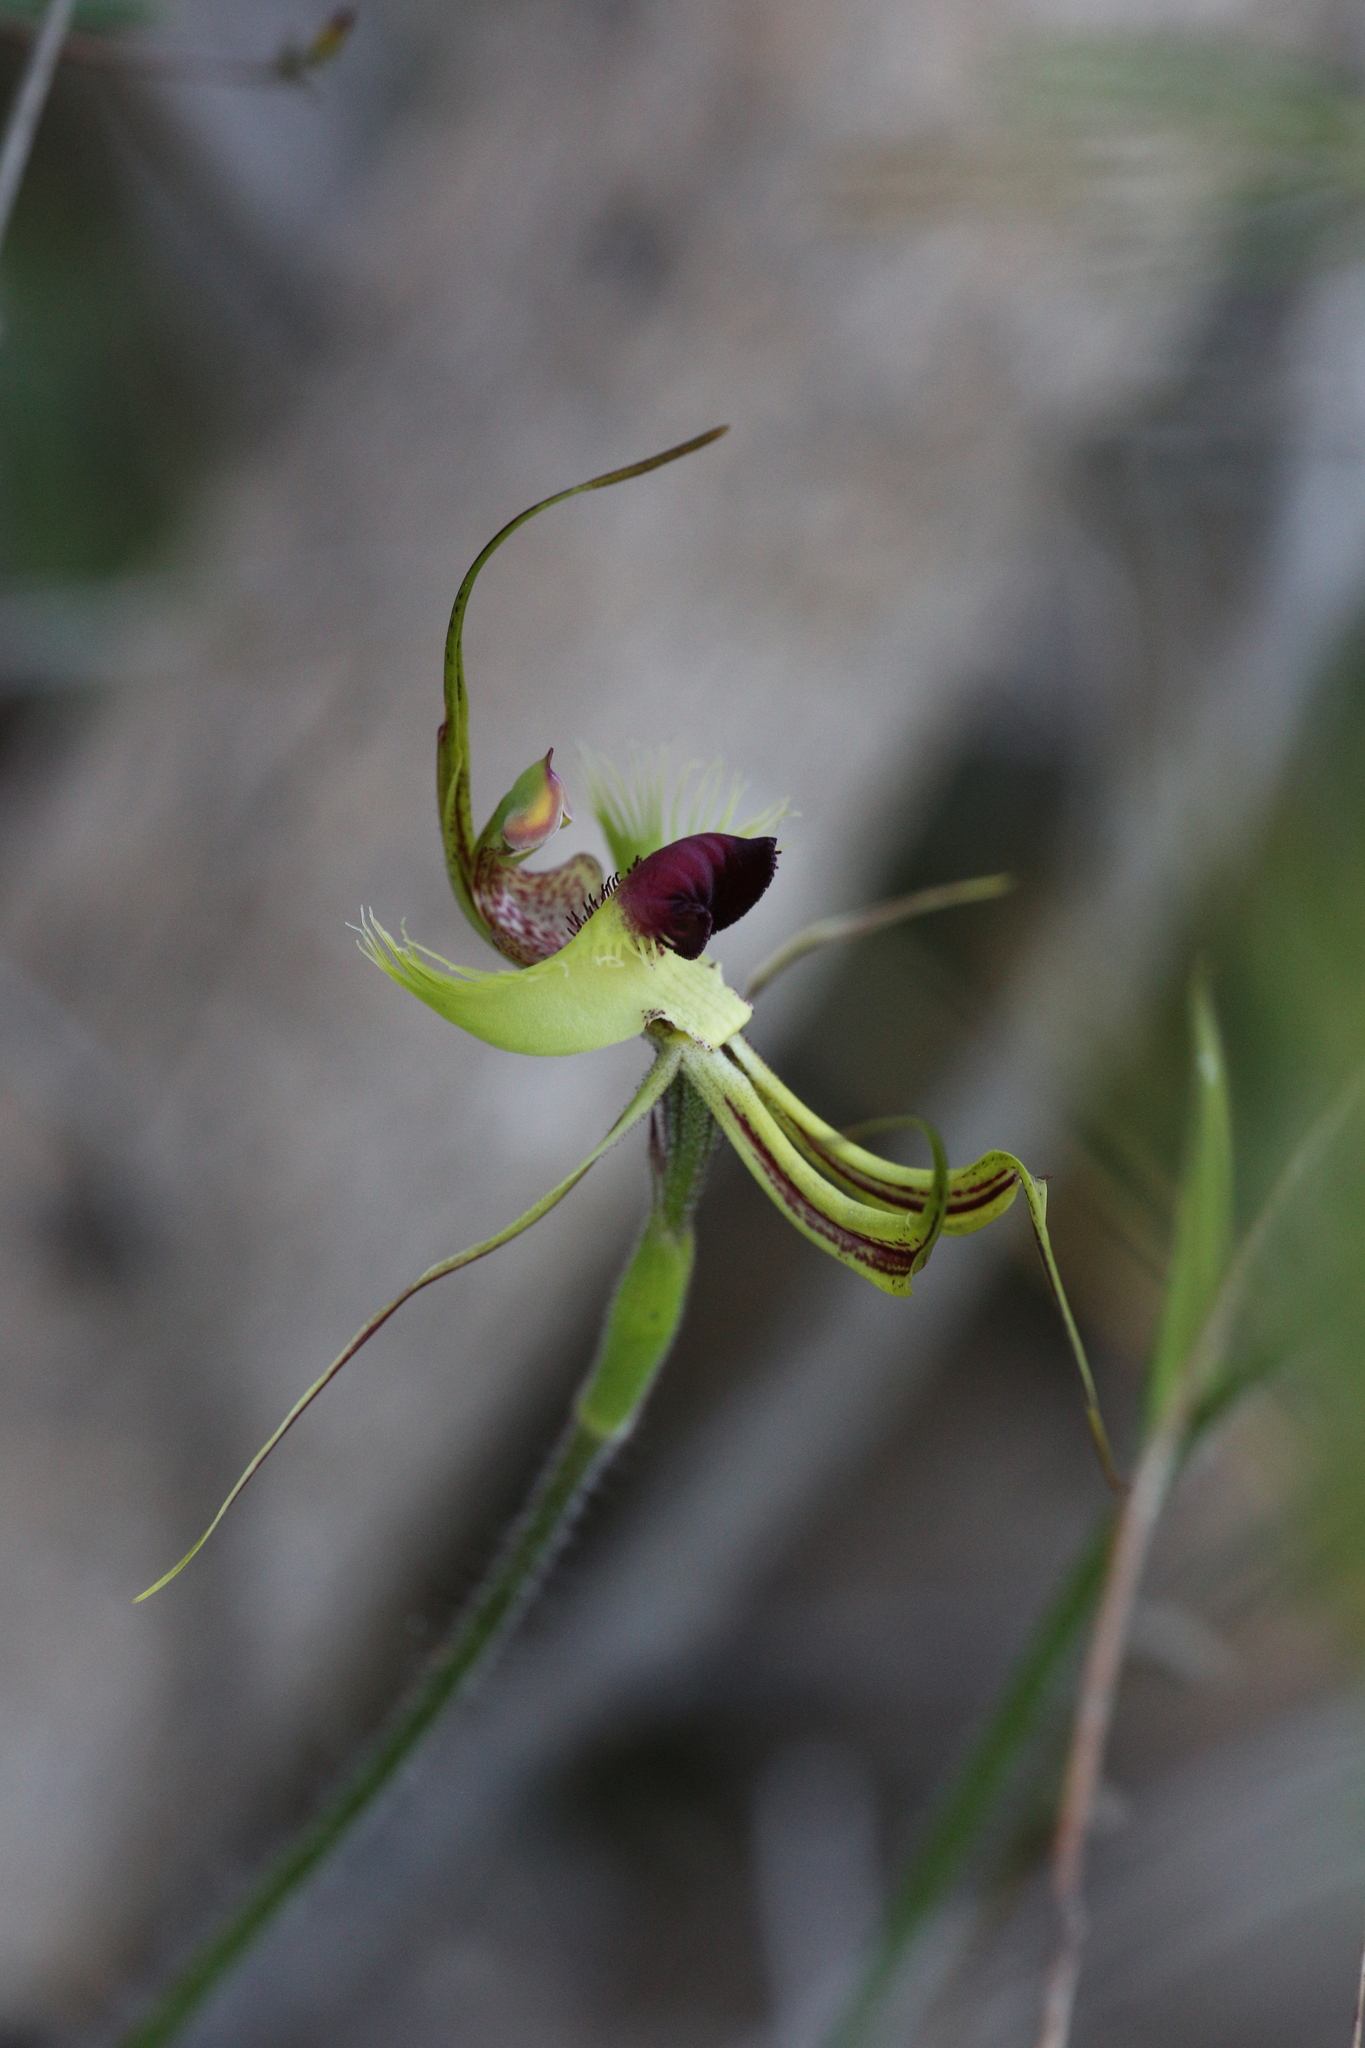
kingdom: Plantae
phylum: Tracheophyta
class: Liliopsida
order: Asparagales
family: Orchidaceae
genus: Caladenia
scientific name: Caladenia lobata
